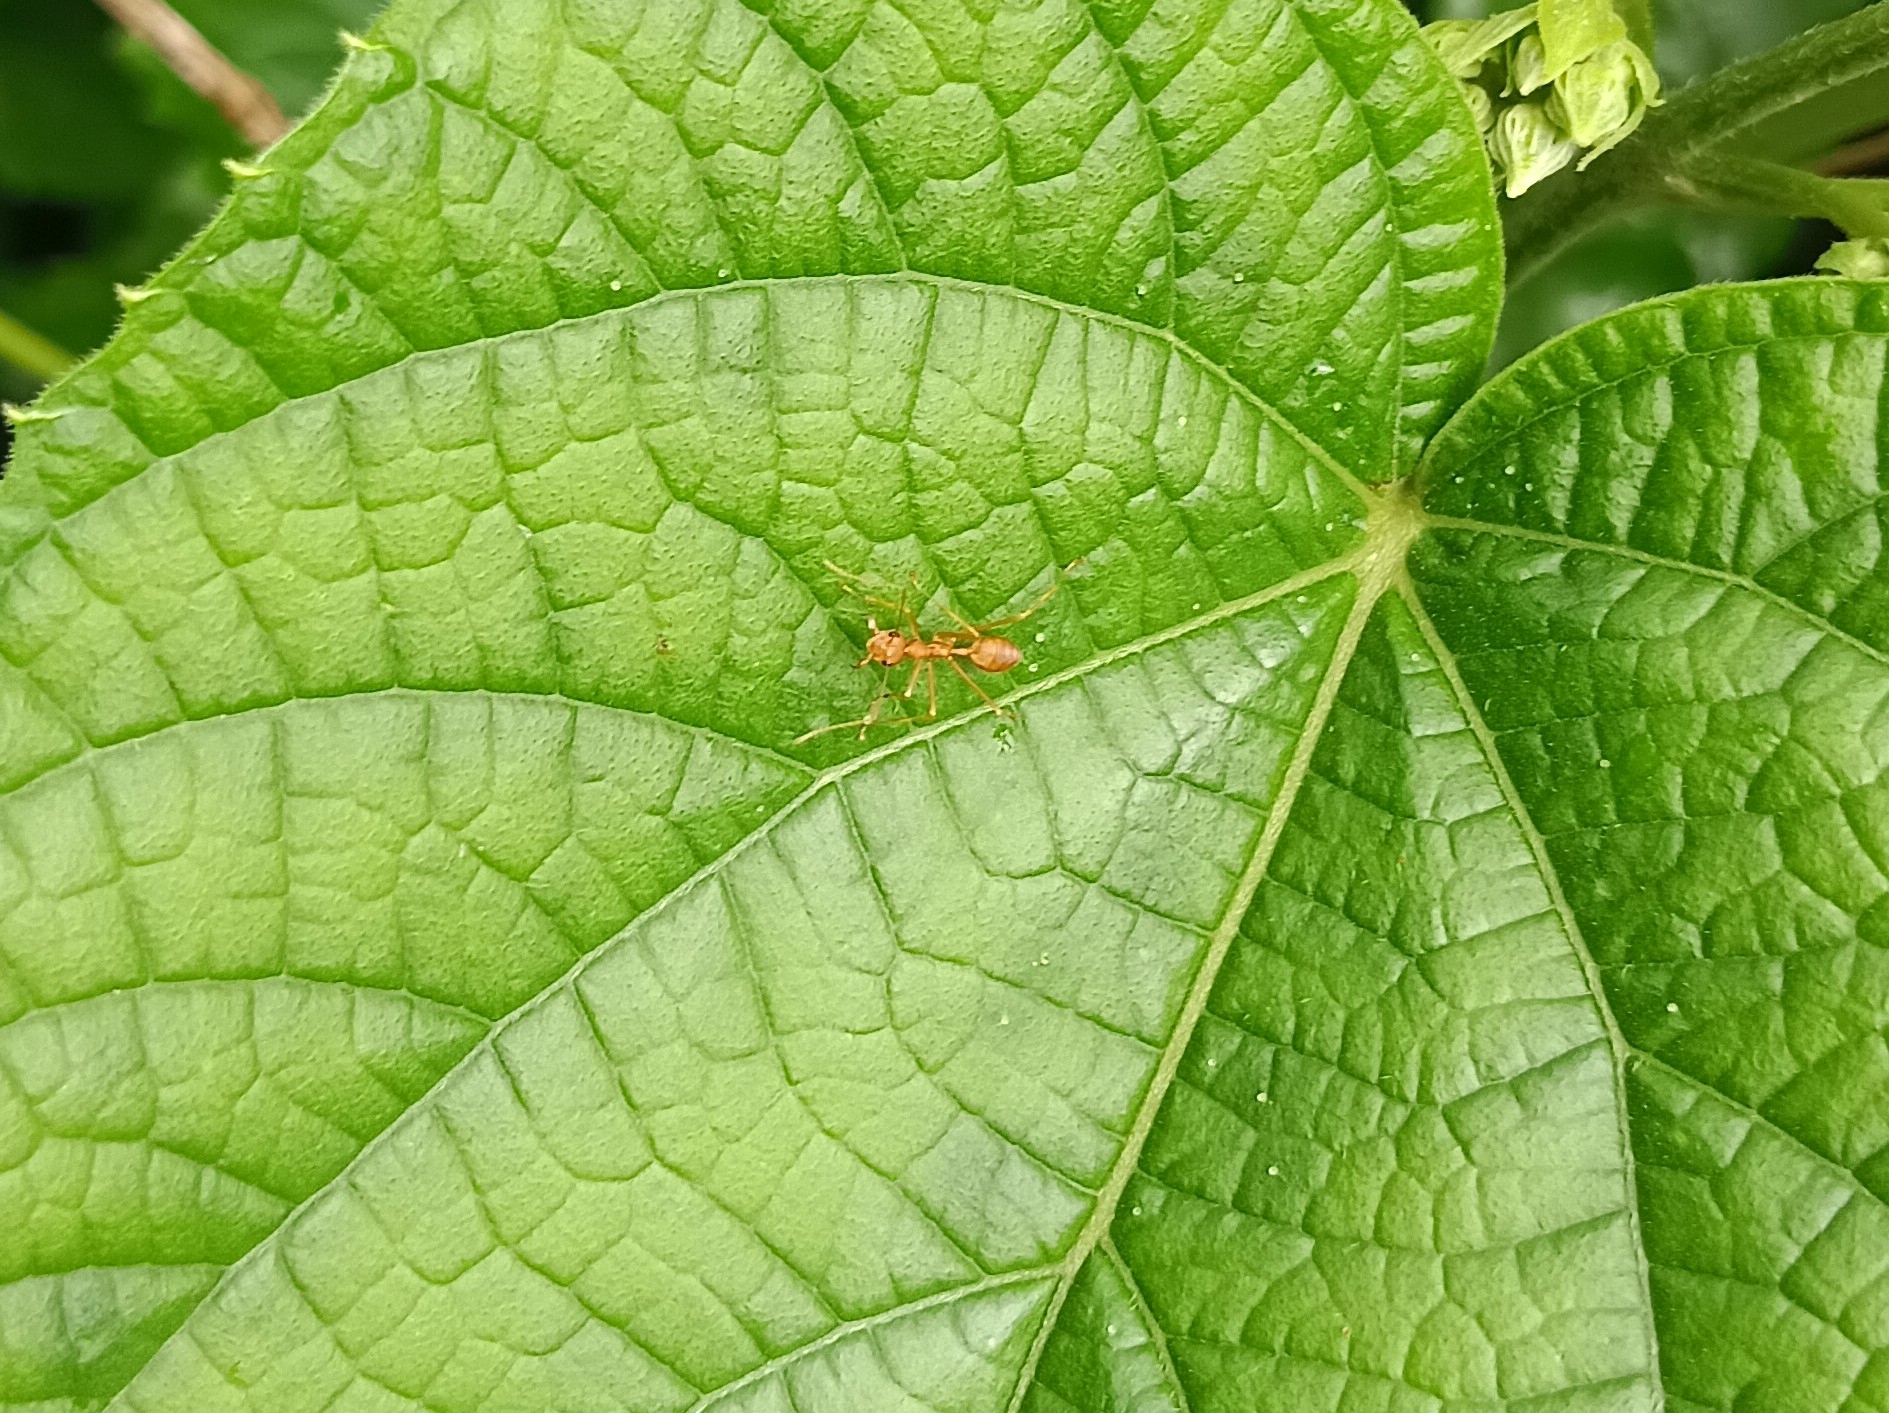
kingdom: Animalia
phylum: Arthropoda
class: Insecta
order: Hymenoptera
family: Formicidae
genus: Oecophylla
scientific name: Oecophylla smaragdina
